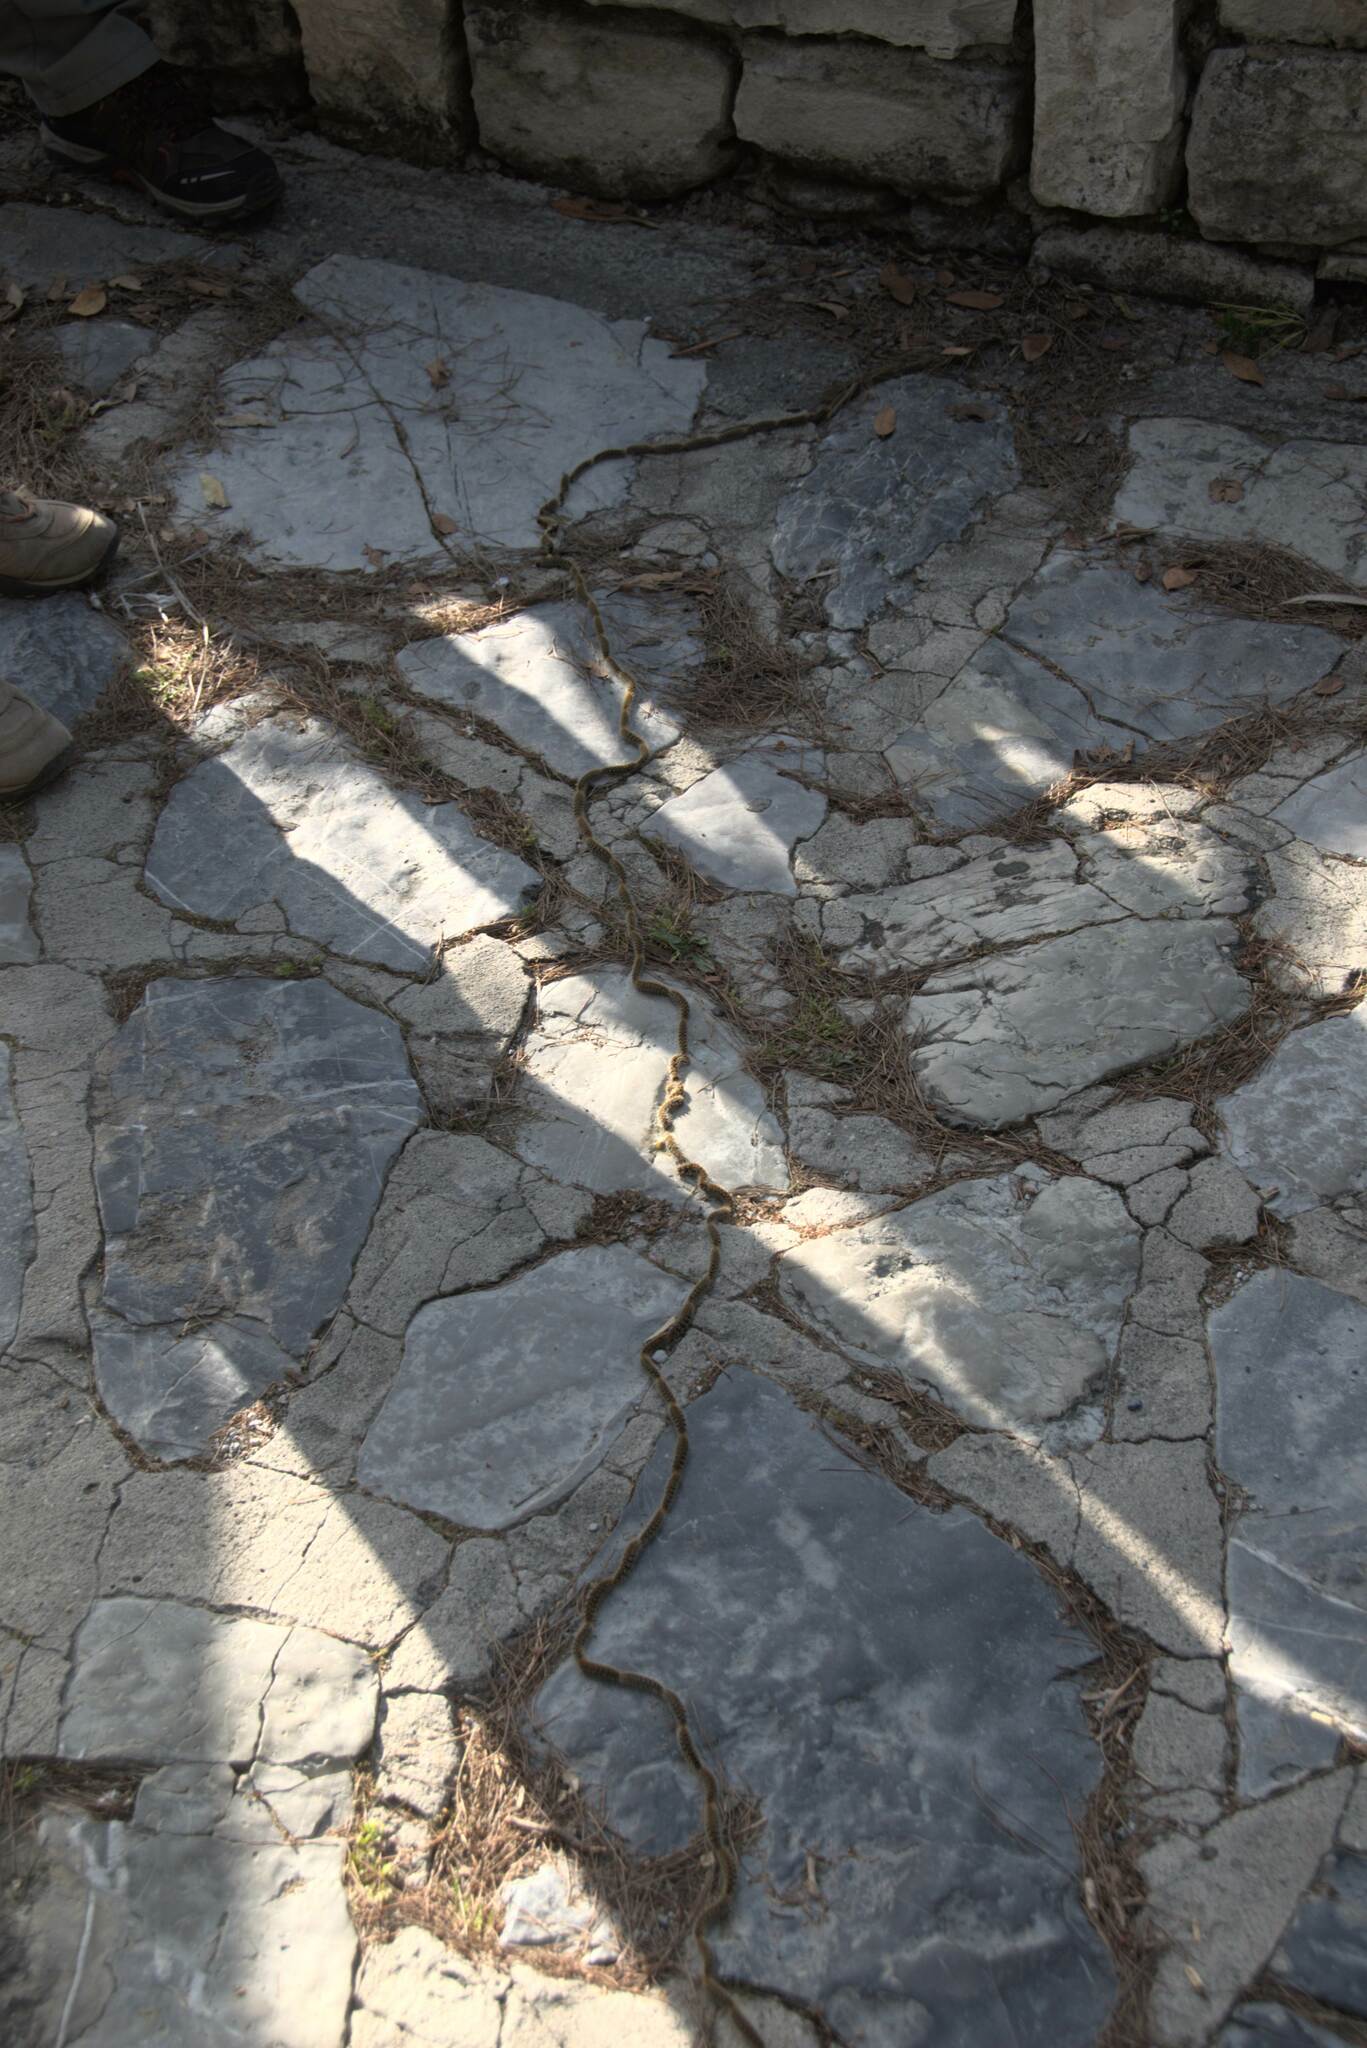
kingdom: Animalia
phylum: Arthropoda
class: Insecta
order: Lepidoptera
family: Notodontidae
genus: Thaumetopoea
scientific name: Thaumetopoea
